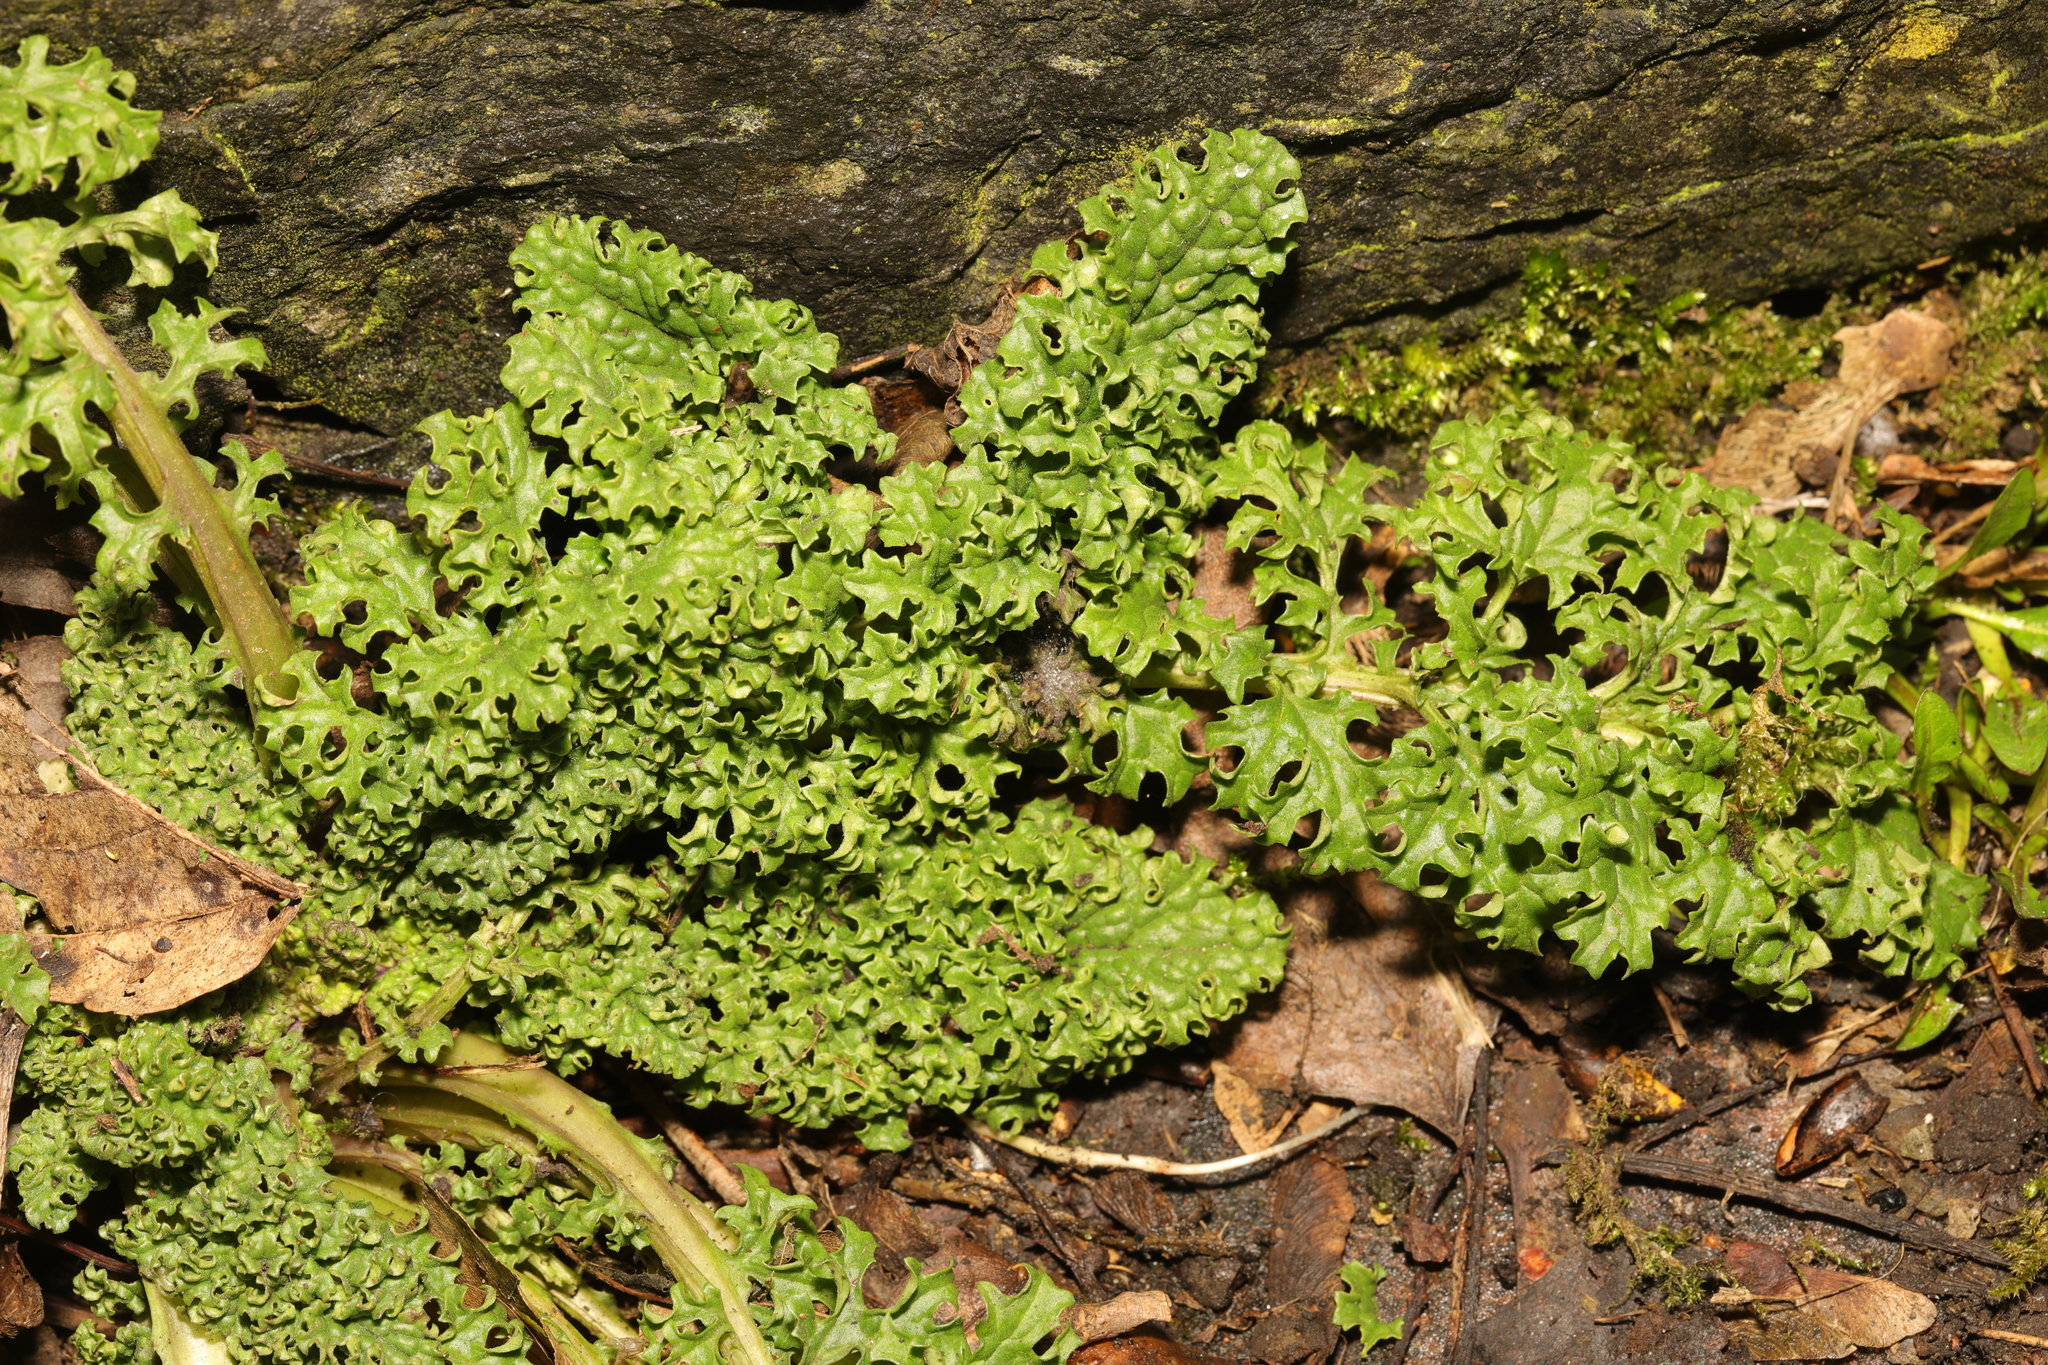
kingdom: Plantae
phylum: Tracheophyta
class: Magnoliopsida
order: Asterales
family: Asteraceae
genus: Jacobaea
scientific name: Jacobaea vulgaris
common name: Stinking willie
